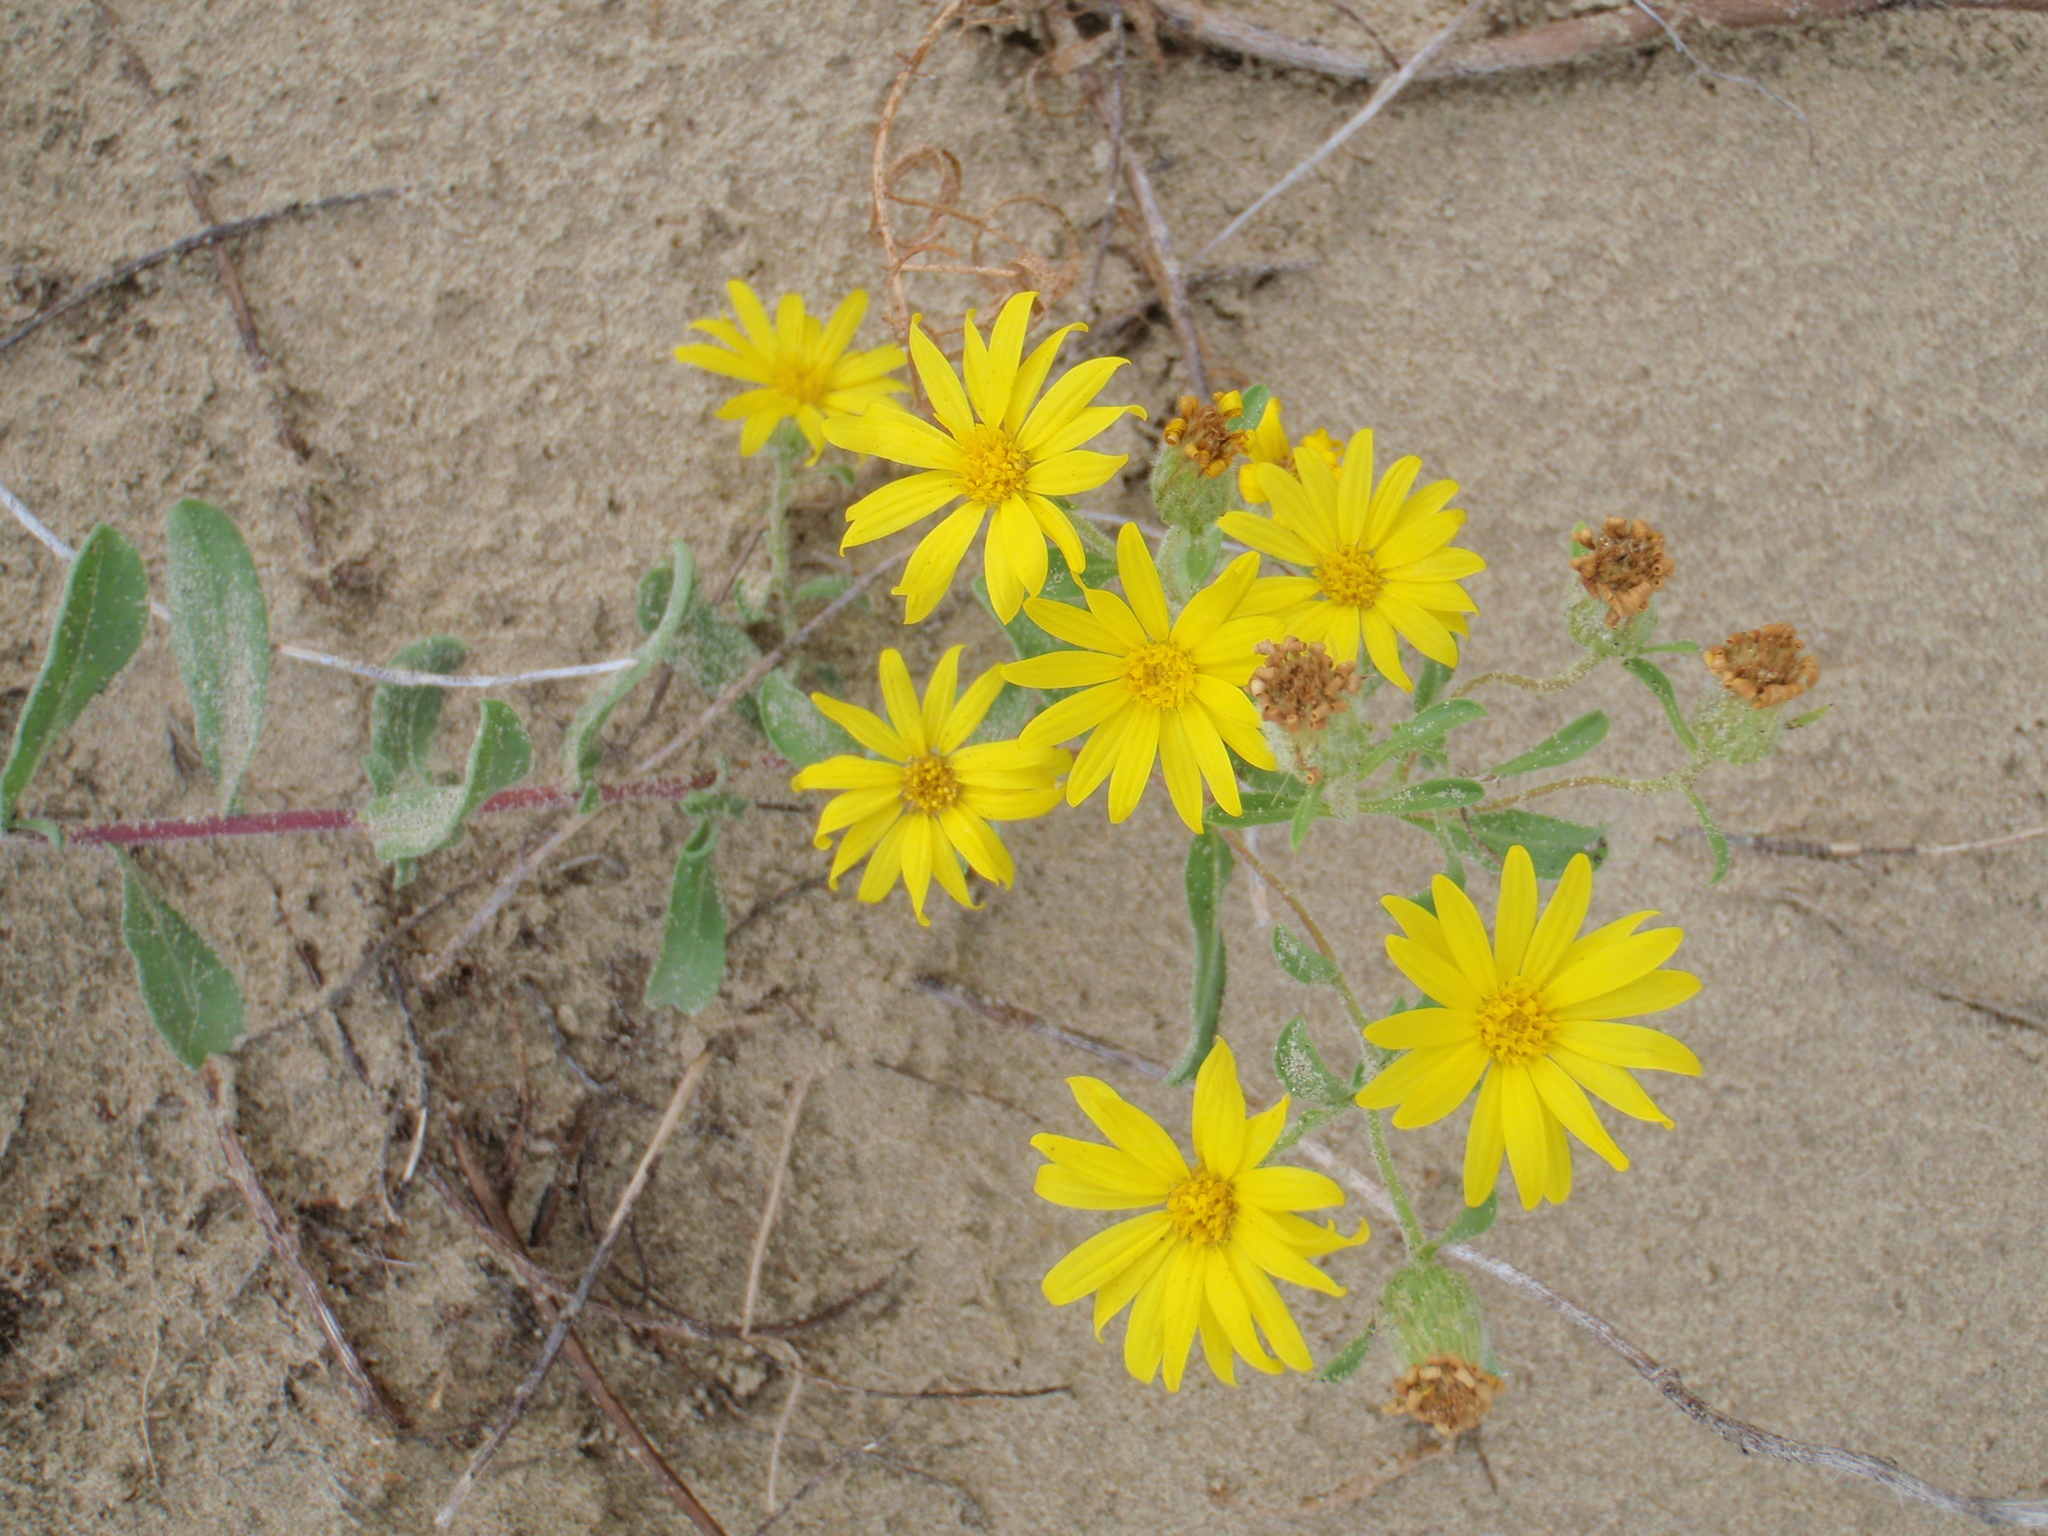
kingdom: Plantae
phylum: Tracheophyta
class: Magnoliopsida
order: Asterales
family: Asteraceae
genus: Heterotheca
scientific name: Heterotheca villosa
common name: Hairy false goldenaster
